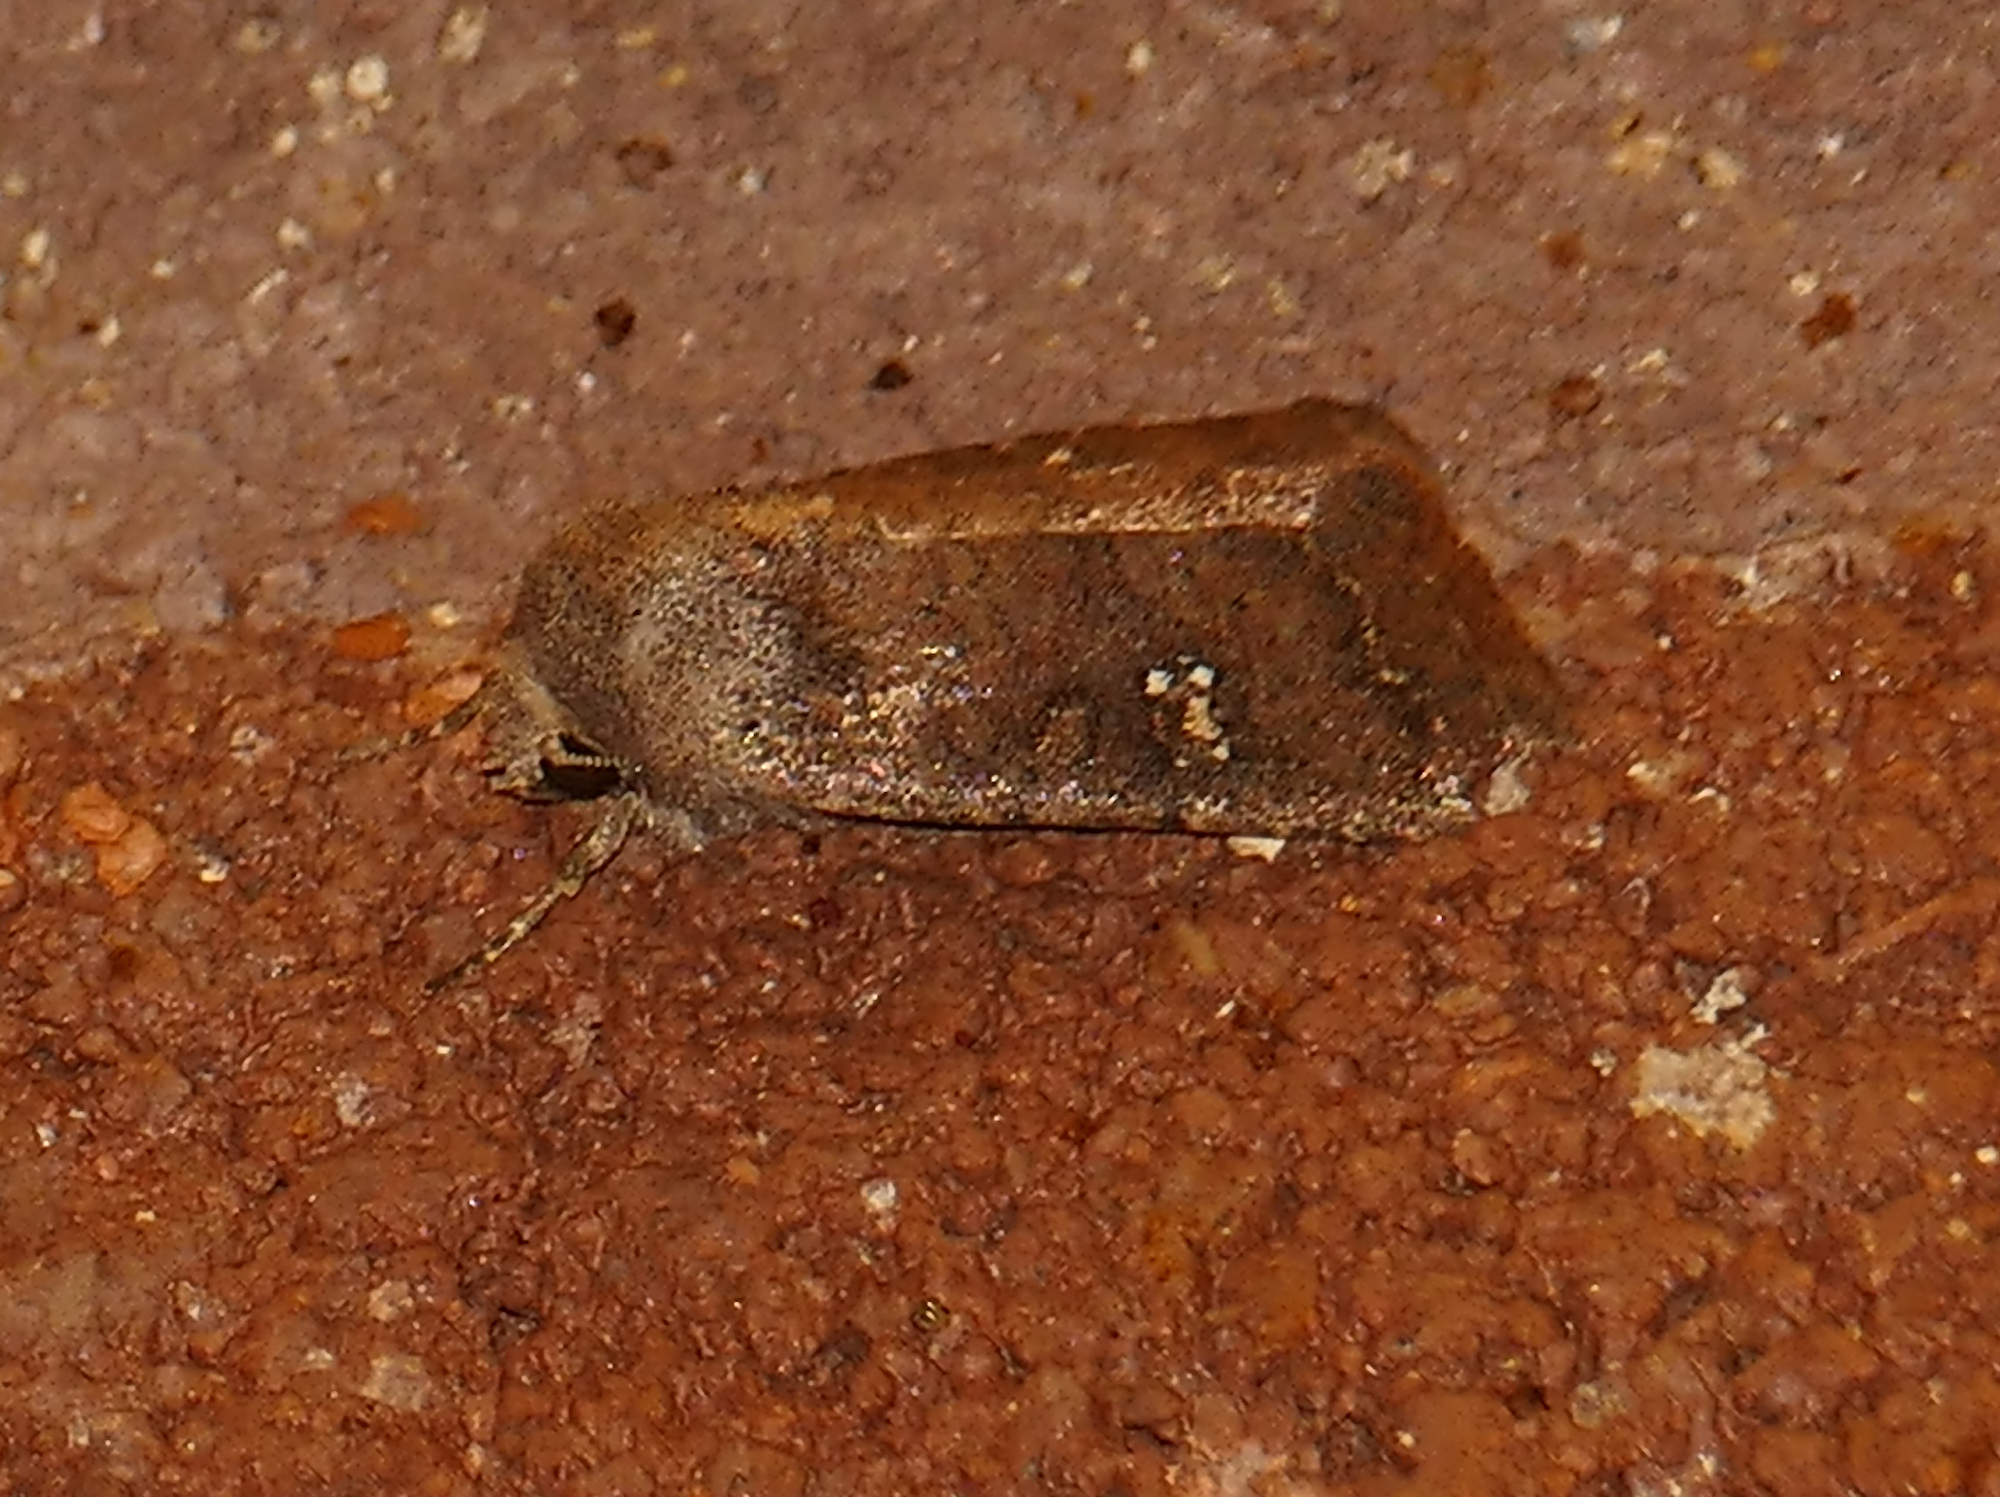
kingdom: Animalia
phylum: Arthropoda
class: Insecta
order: Lepidoptera
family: Noctuidae
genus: Trichopolia
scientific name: Trichopolia
